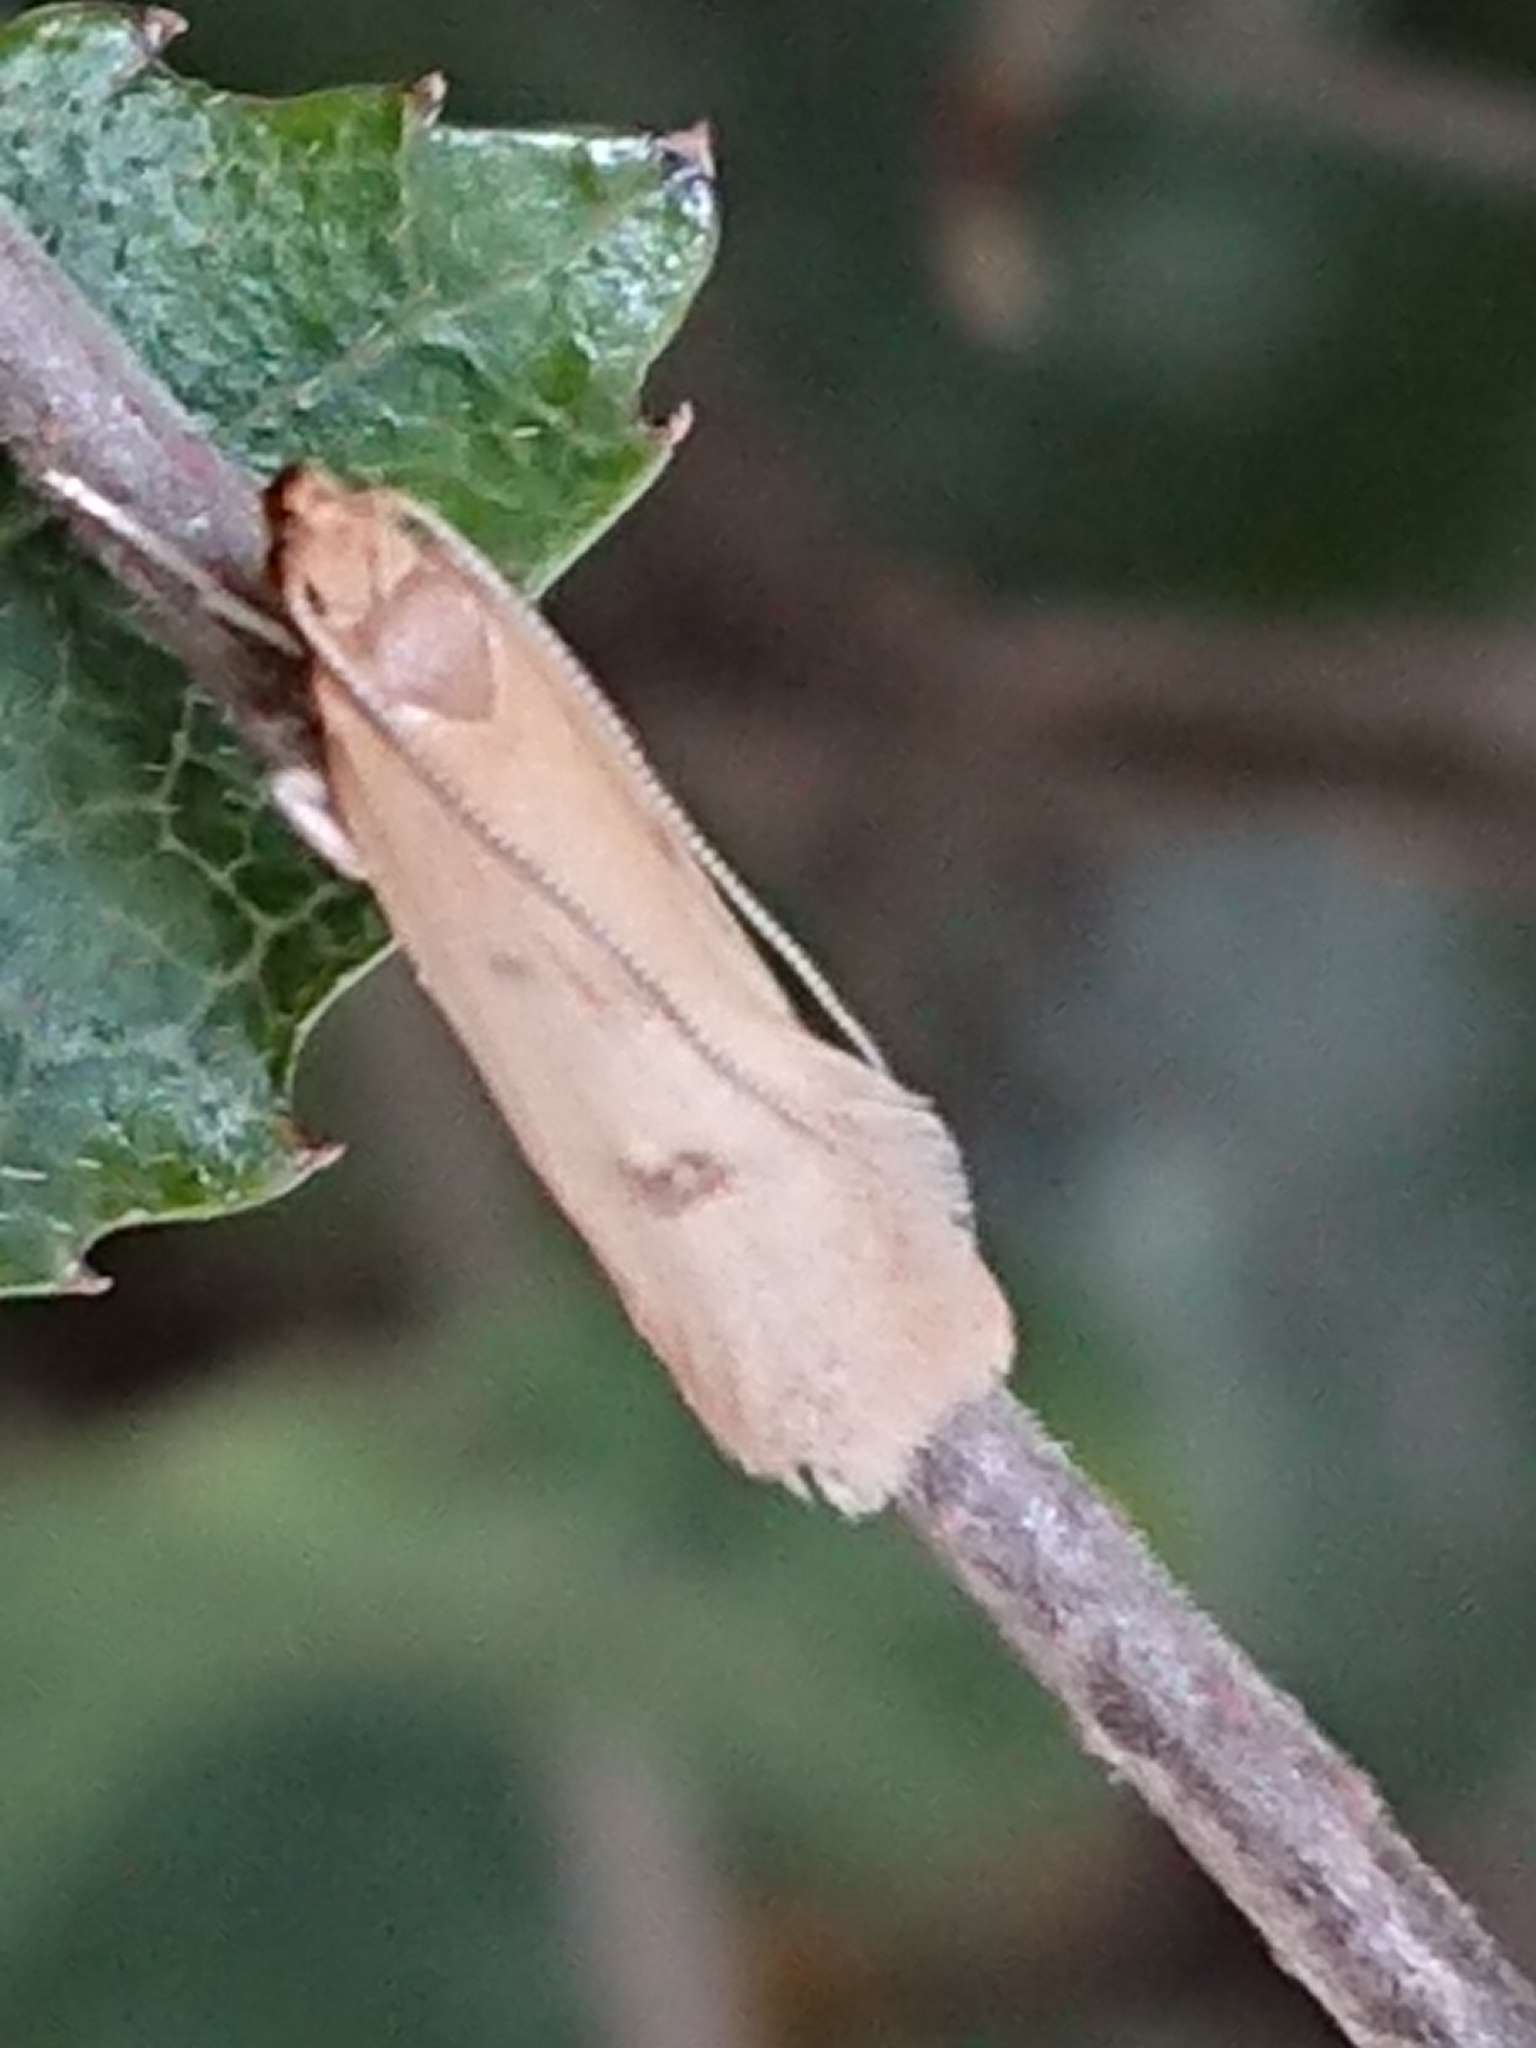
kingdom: Animalia
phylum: Arthropoda
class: Insecta
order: Lepidoptera
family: Oecophoridae
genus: Gymnobathra
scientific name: Gymnobathra sarcoxantha
